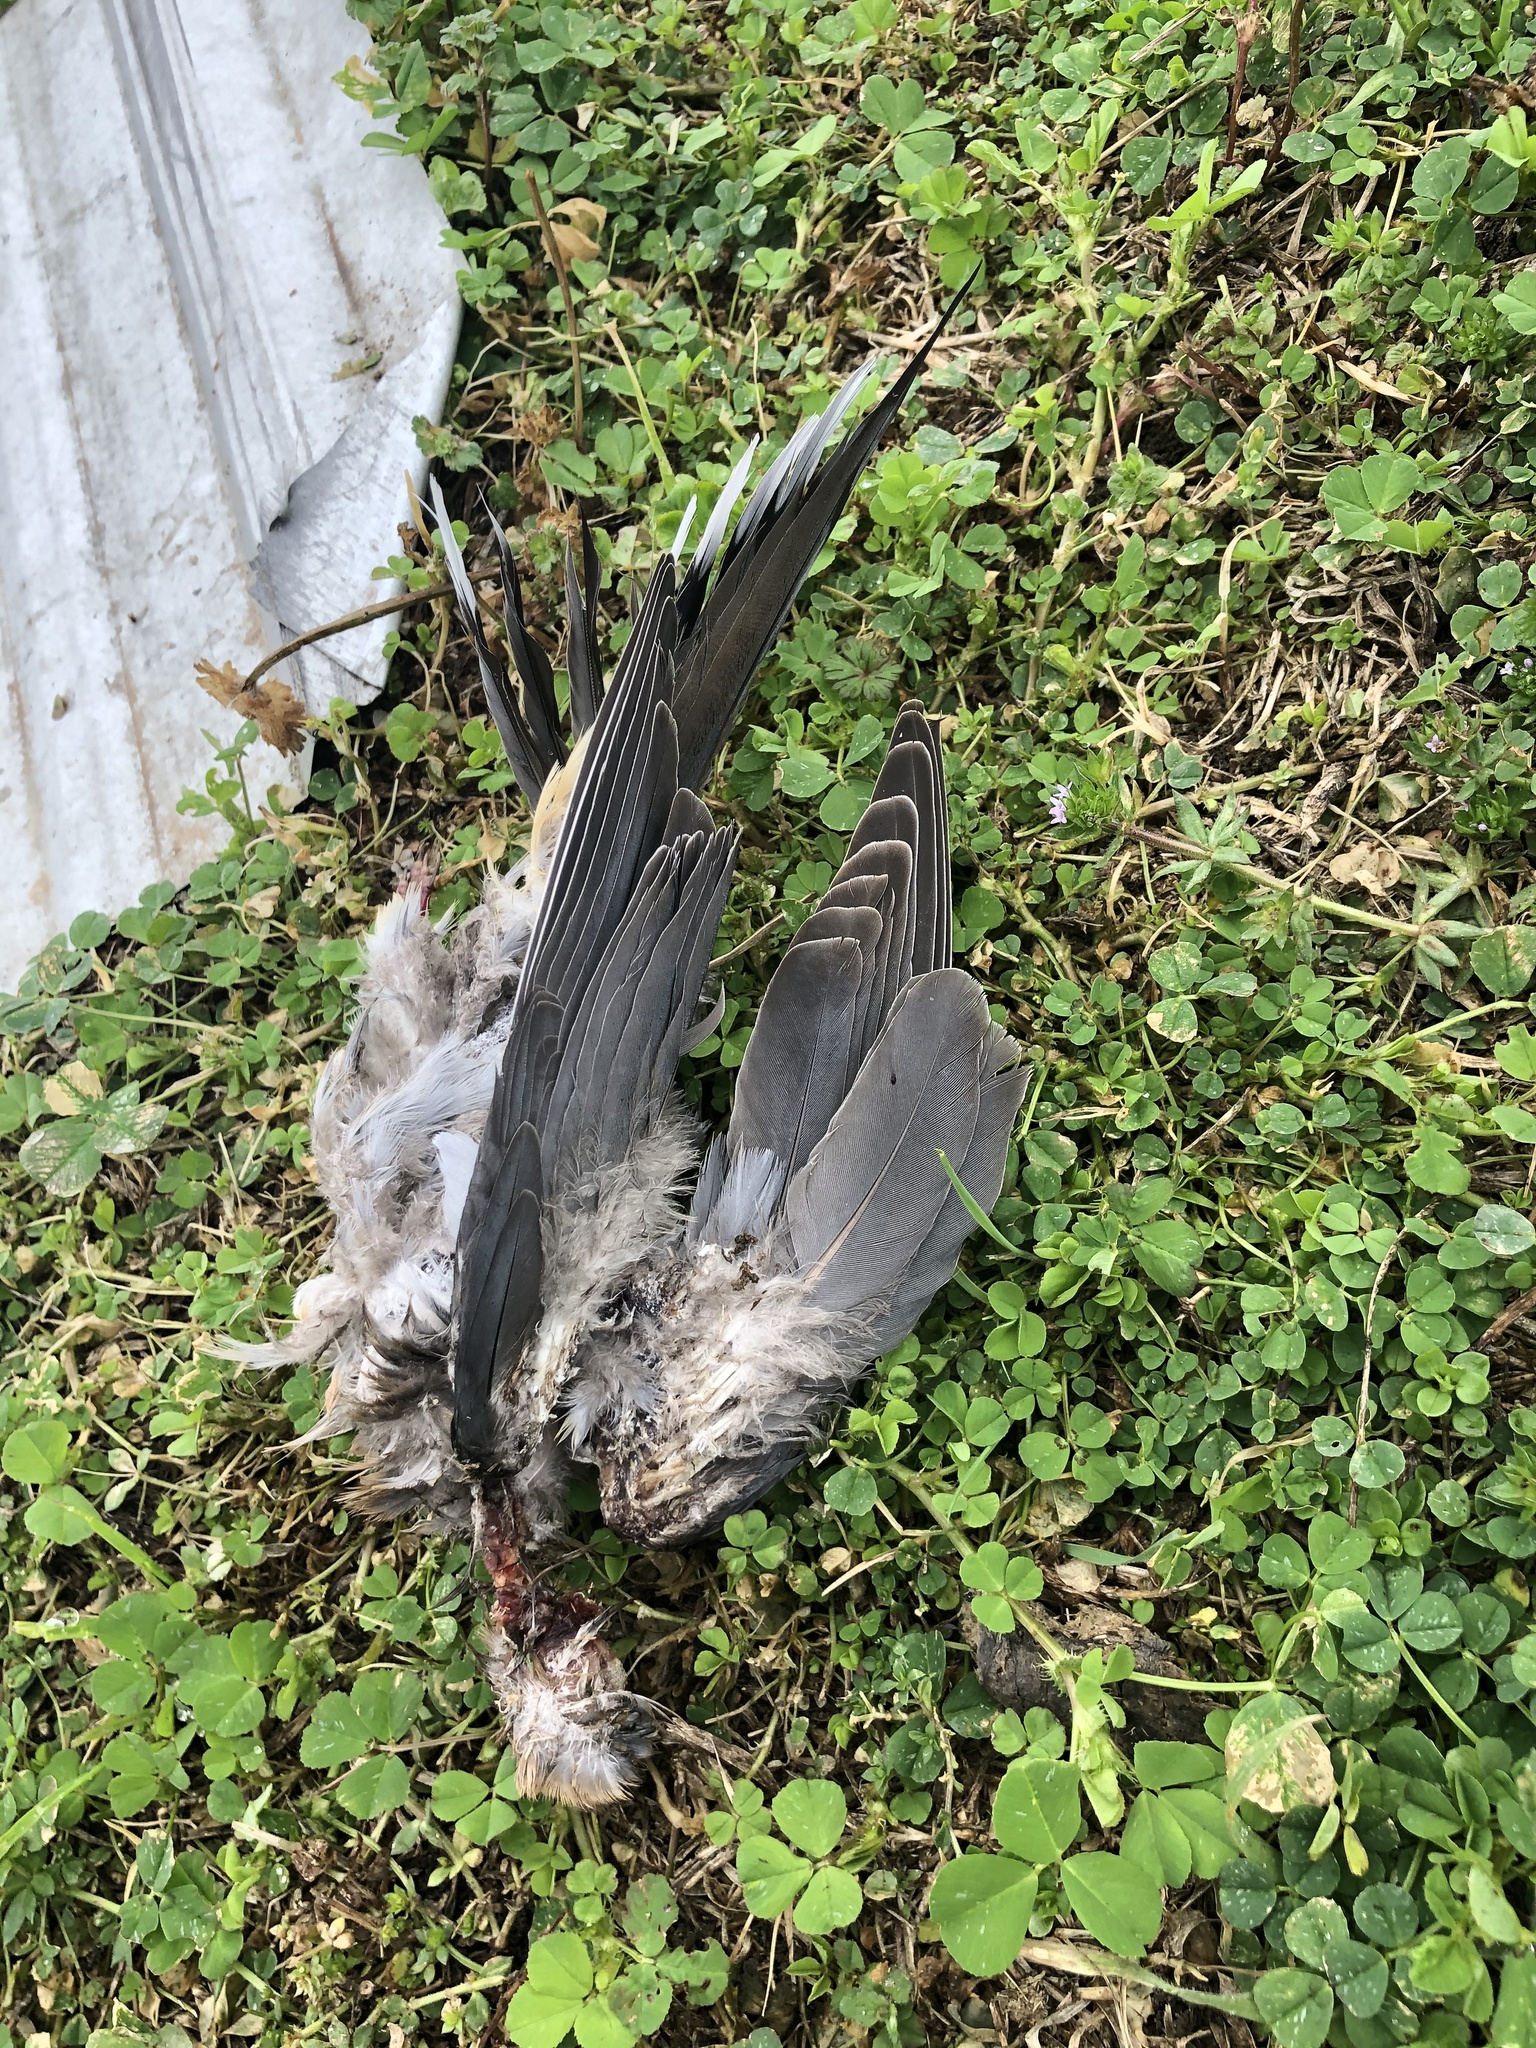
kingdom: Animalia
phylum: Chordata
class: Aves
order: Columbiformes
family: Columbidae
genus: Zenaida
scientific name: Zenaida macroura
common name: Mourning dove
